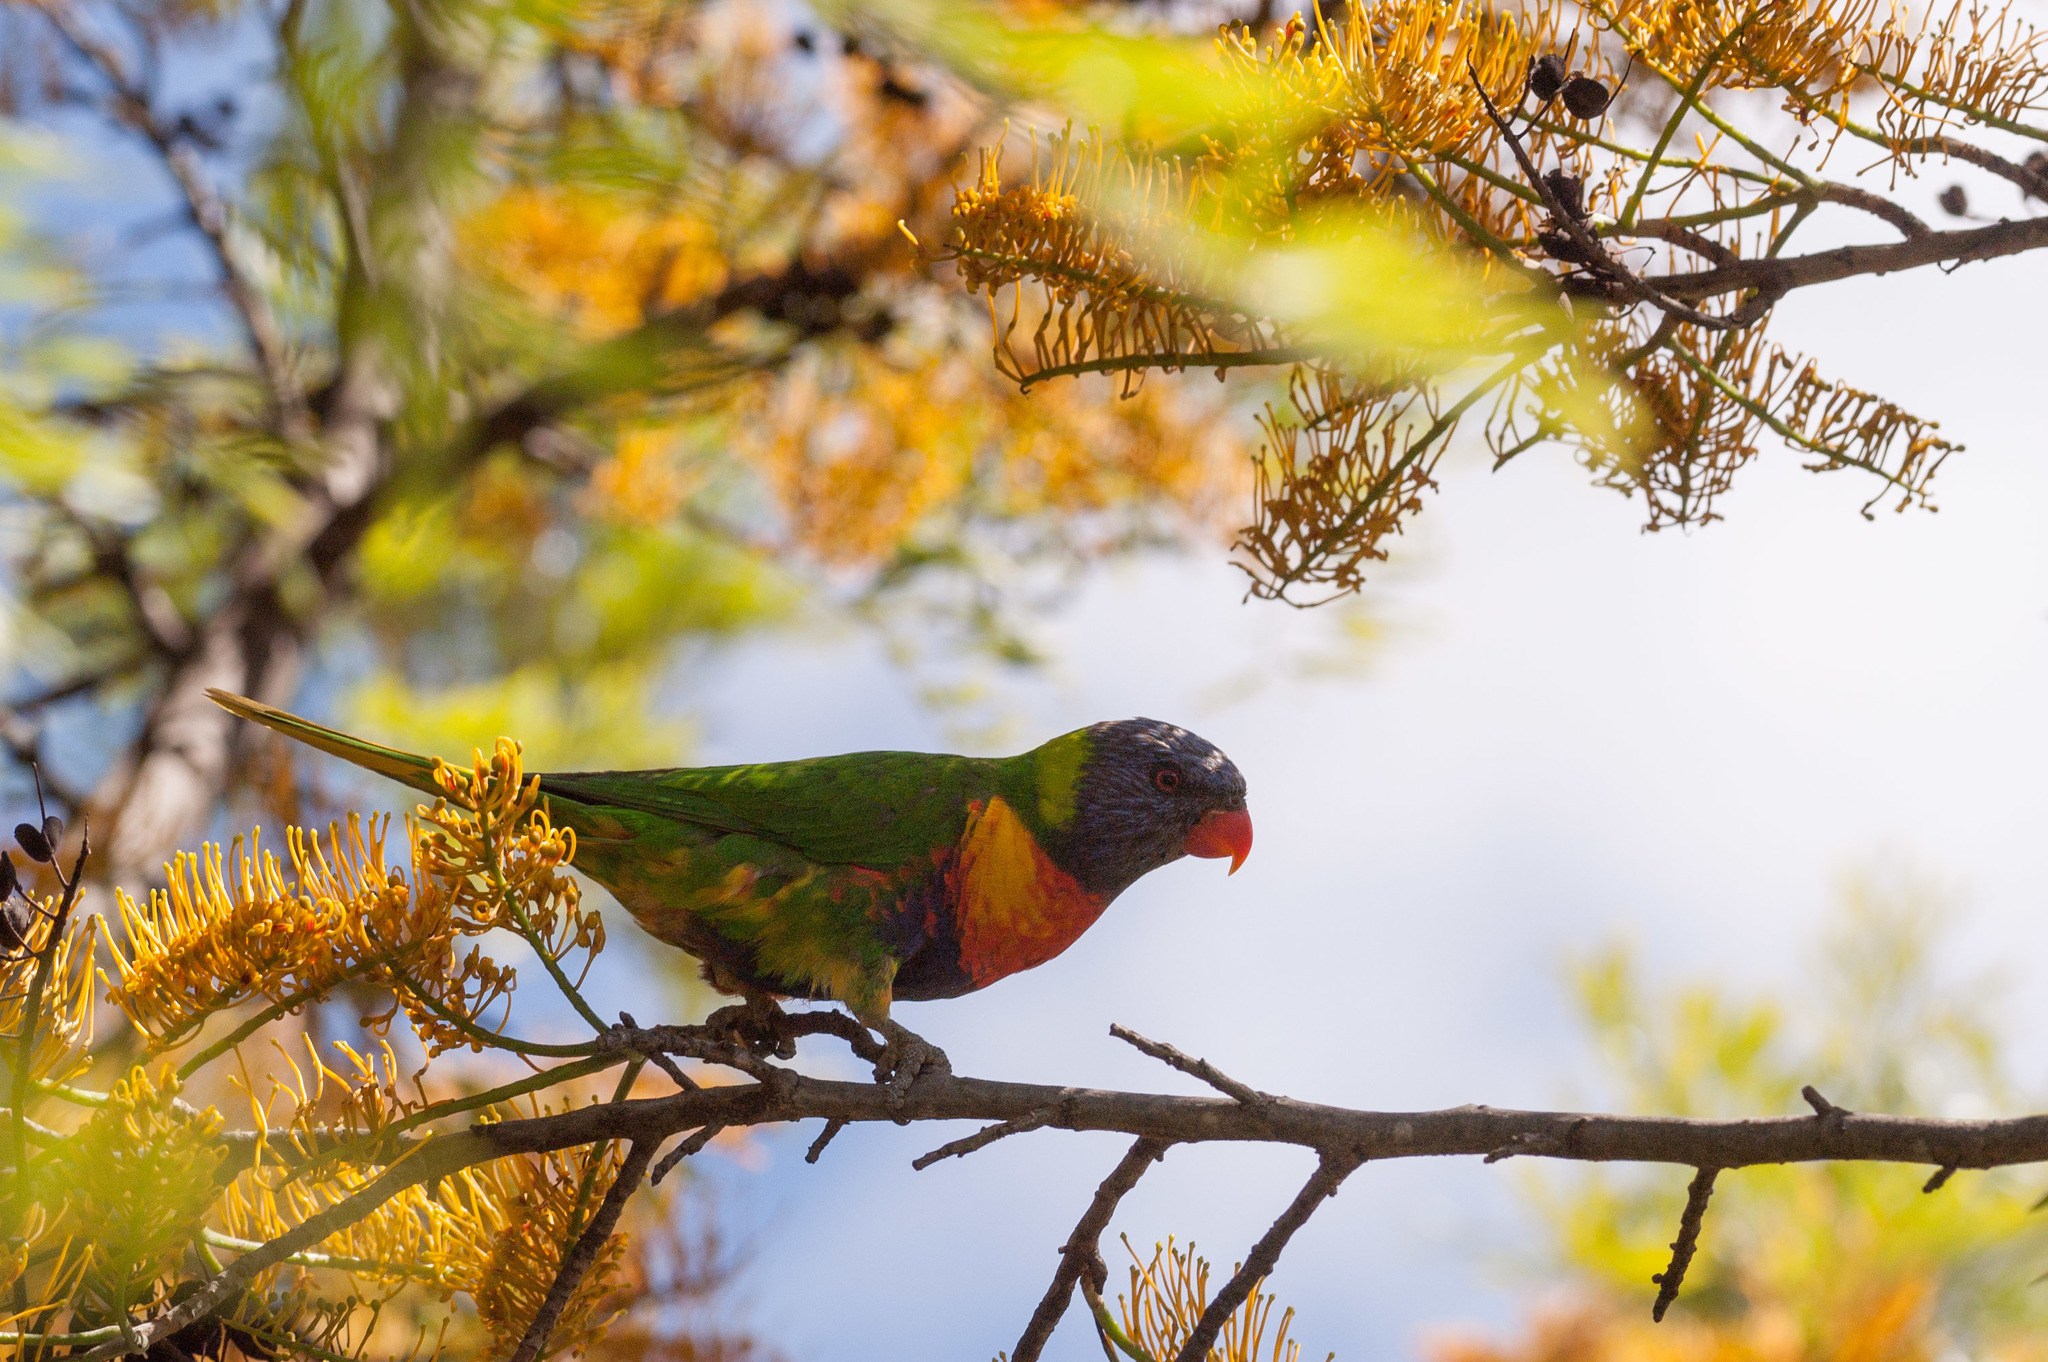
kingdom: Animalia
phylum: Chordata
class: Aves
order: Psittaciformes
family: Psittacidae
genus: Trichoglossus
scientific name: Trichoglossus haematodus
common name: Coconut lorikeet
